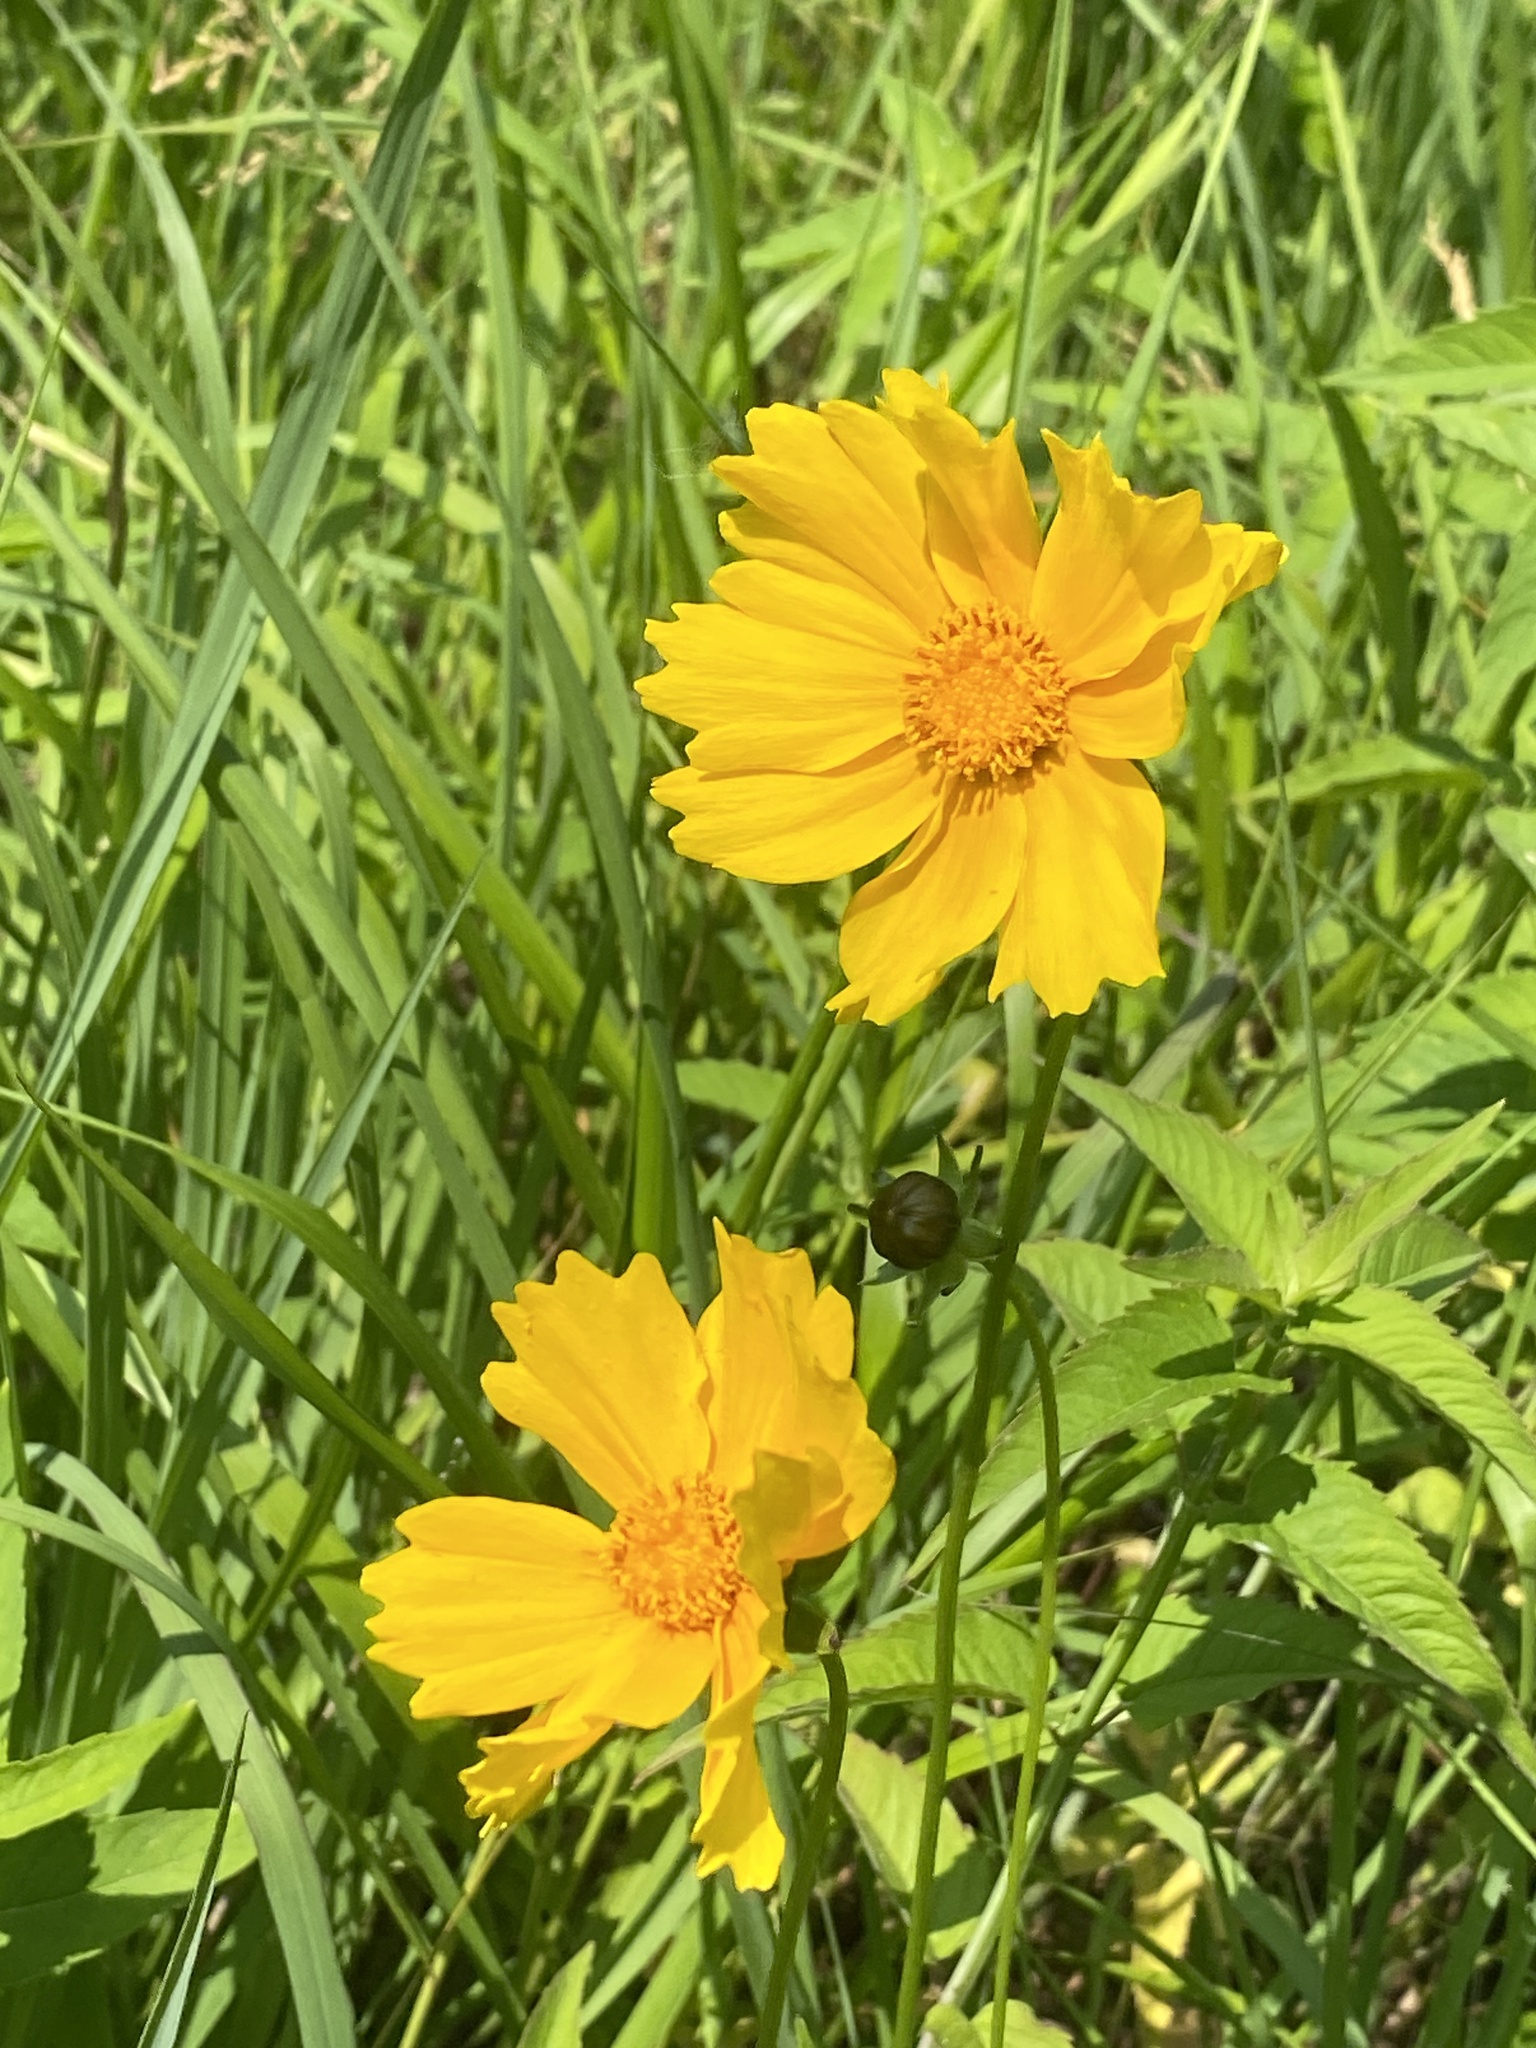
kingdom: Plantae
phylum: Tracheophyta
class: Magnoliopsida
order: Asterales
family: Asteraceae
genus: Coreopsis
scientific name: Coreopsis lanceolata
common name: Garden coreopsis
